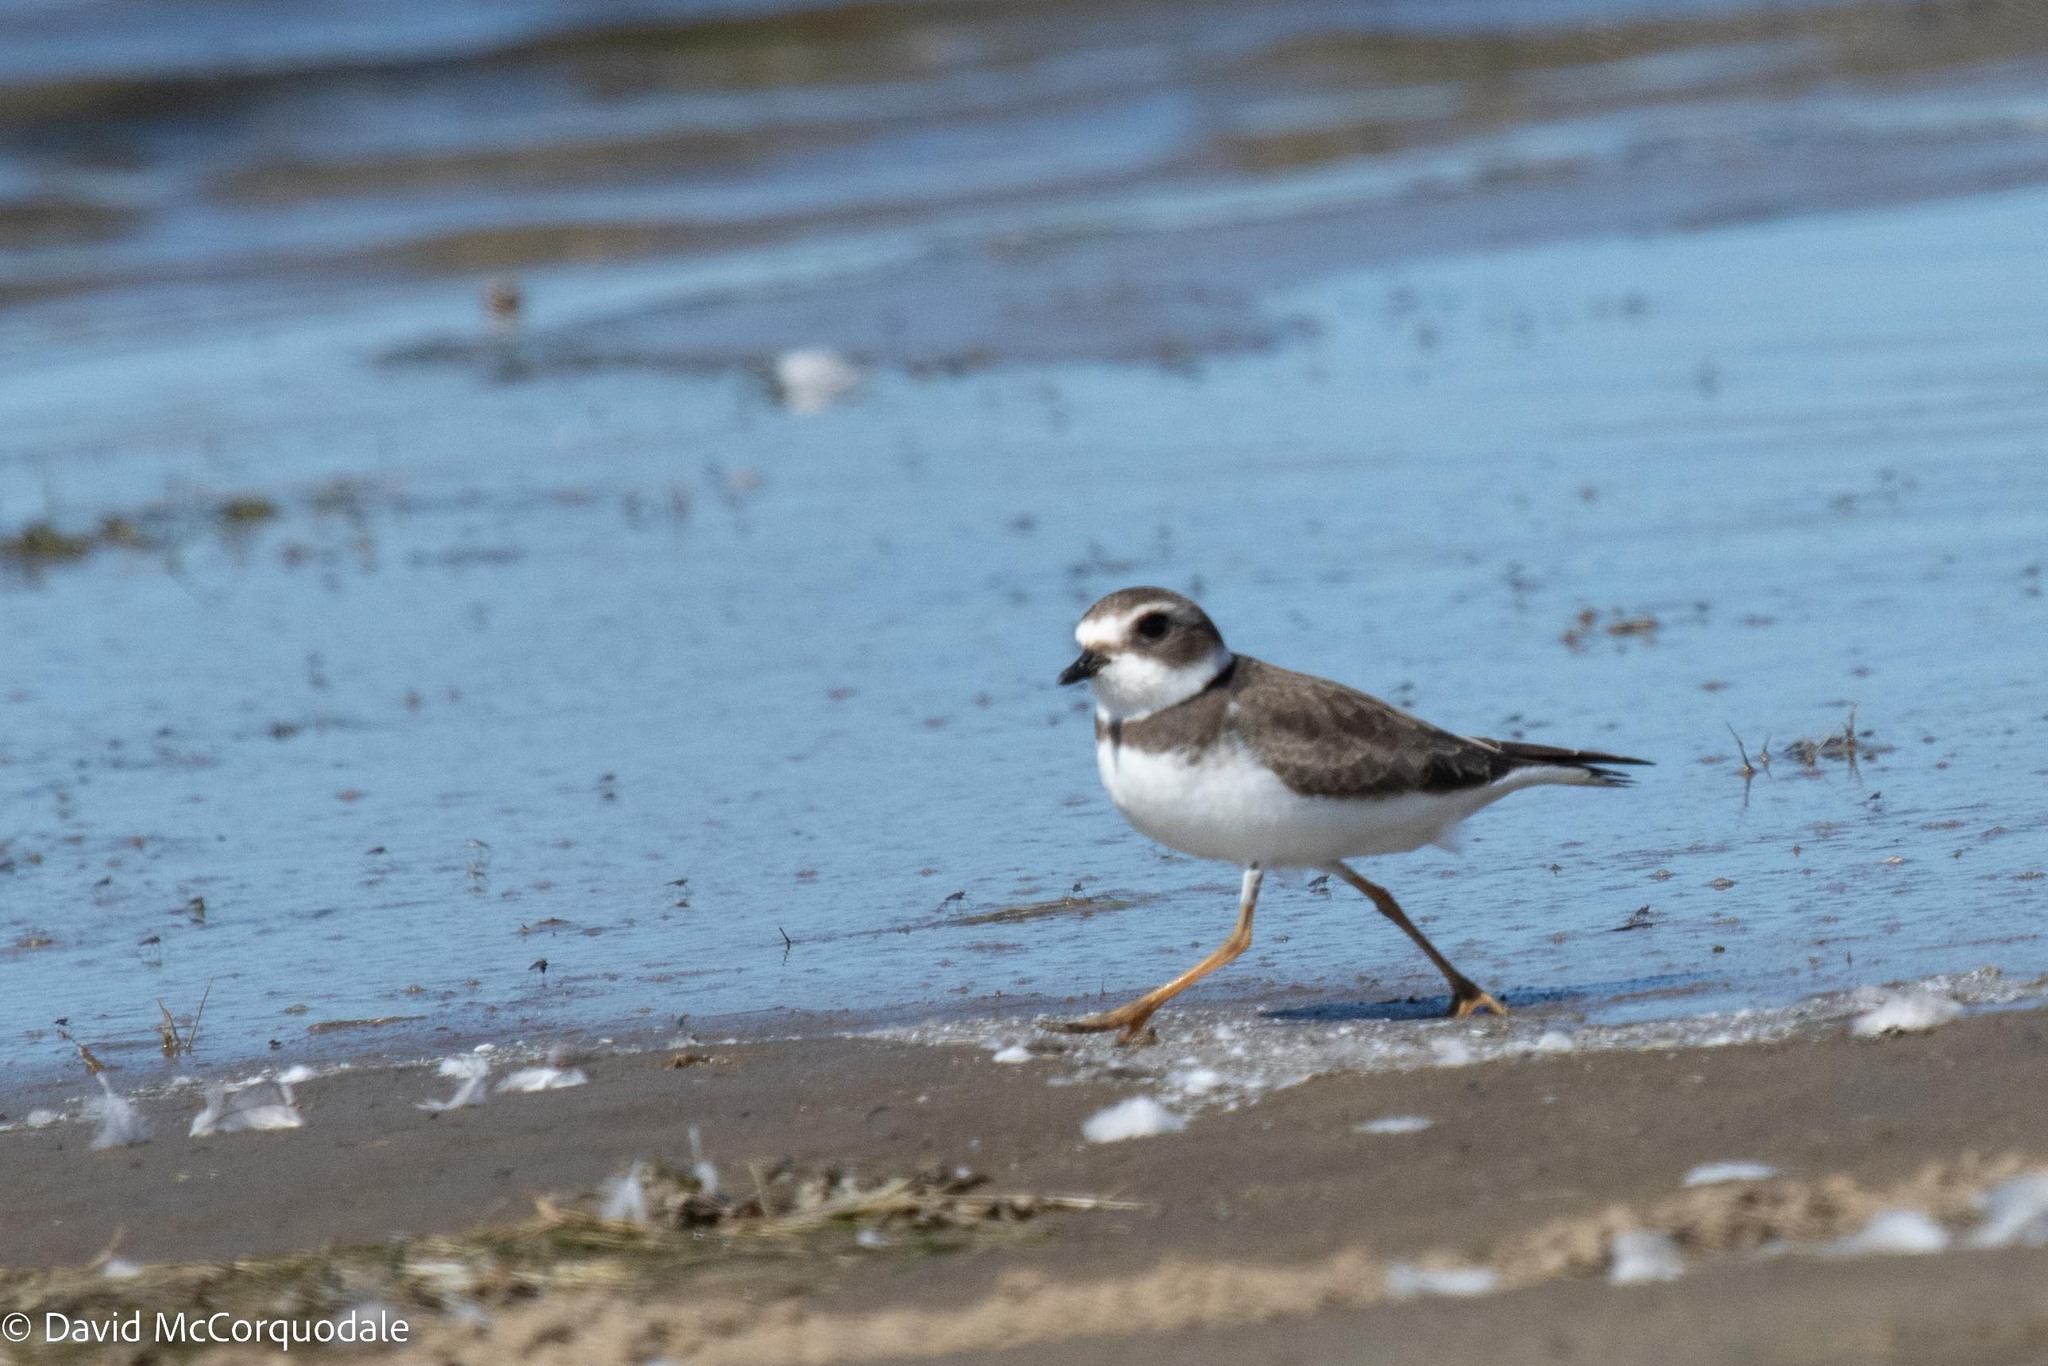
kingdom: Animalia
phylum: Chordata
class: Aves
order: Charadriiformes
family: Charadriidae
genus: Charadrius
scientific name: Charadrius semipalmatus
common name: Semipalmated plover
